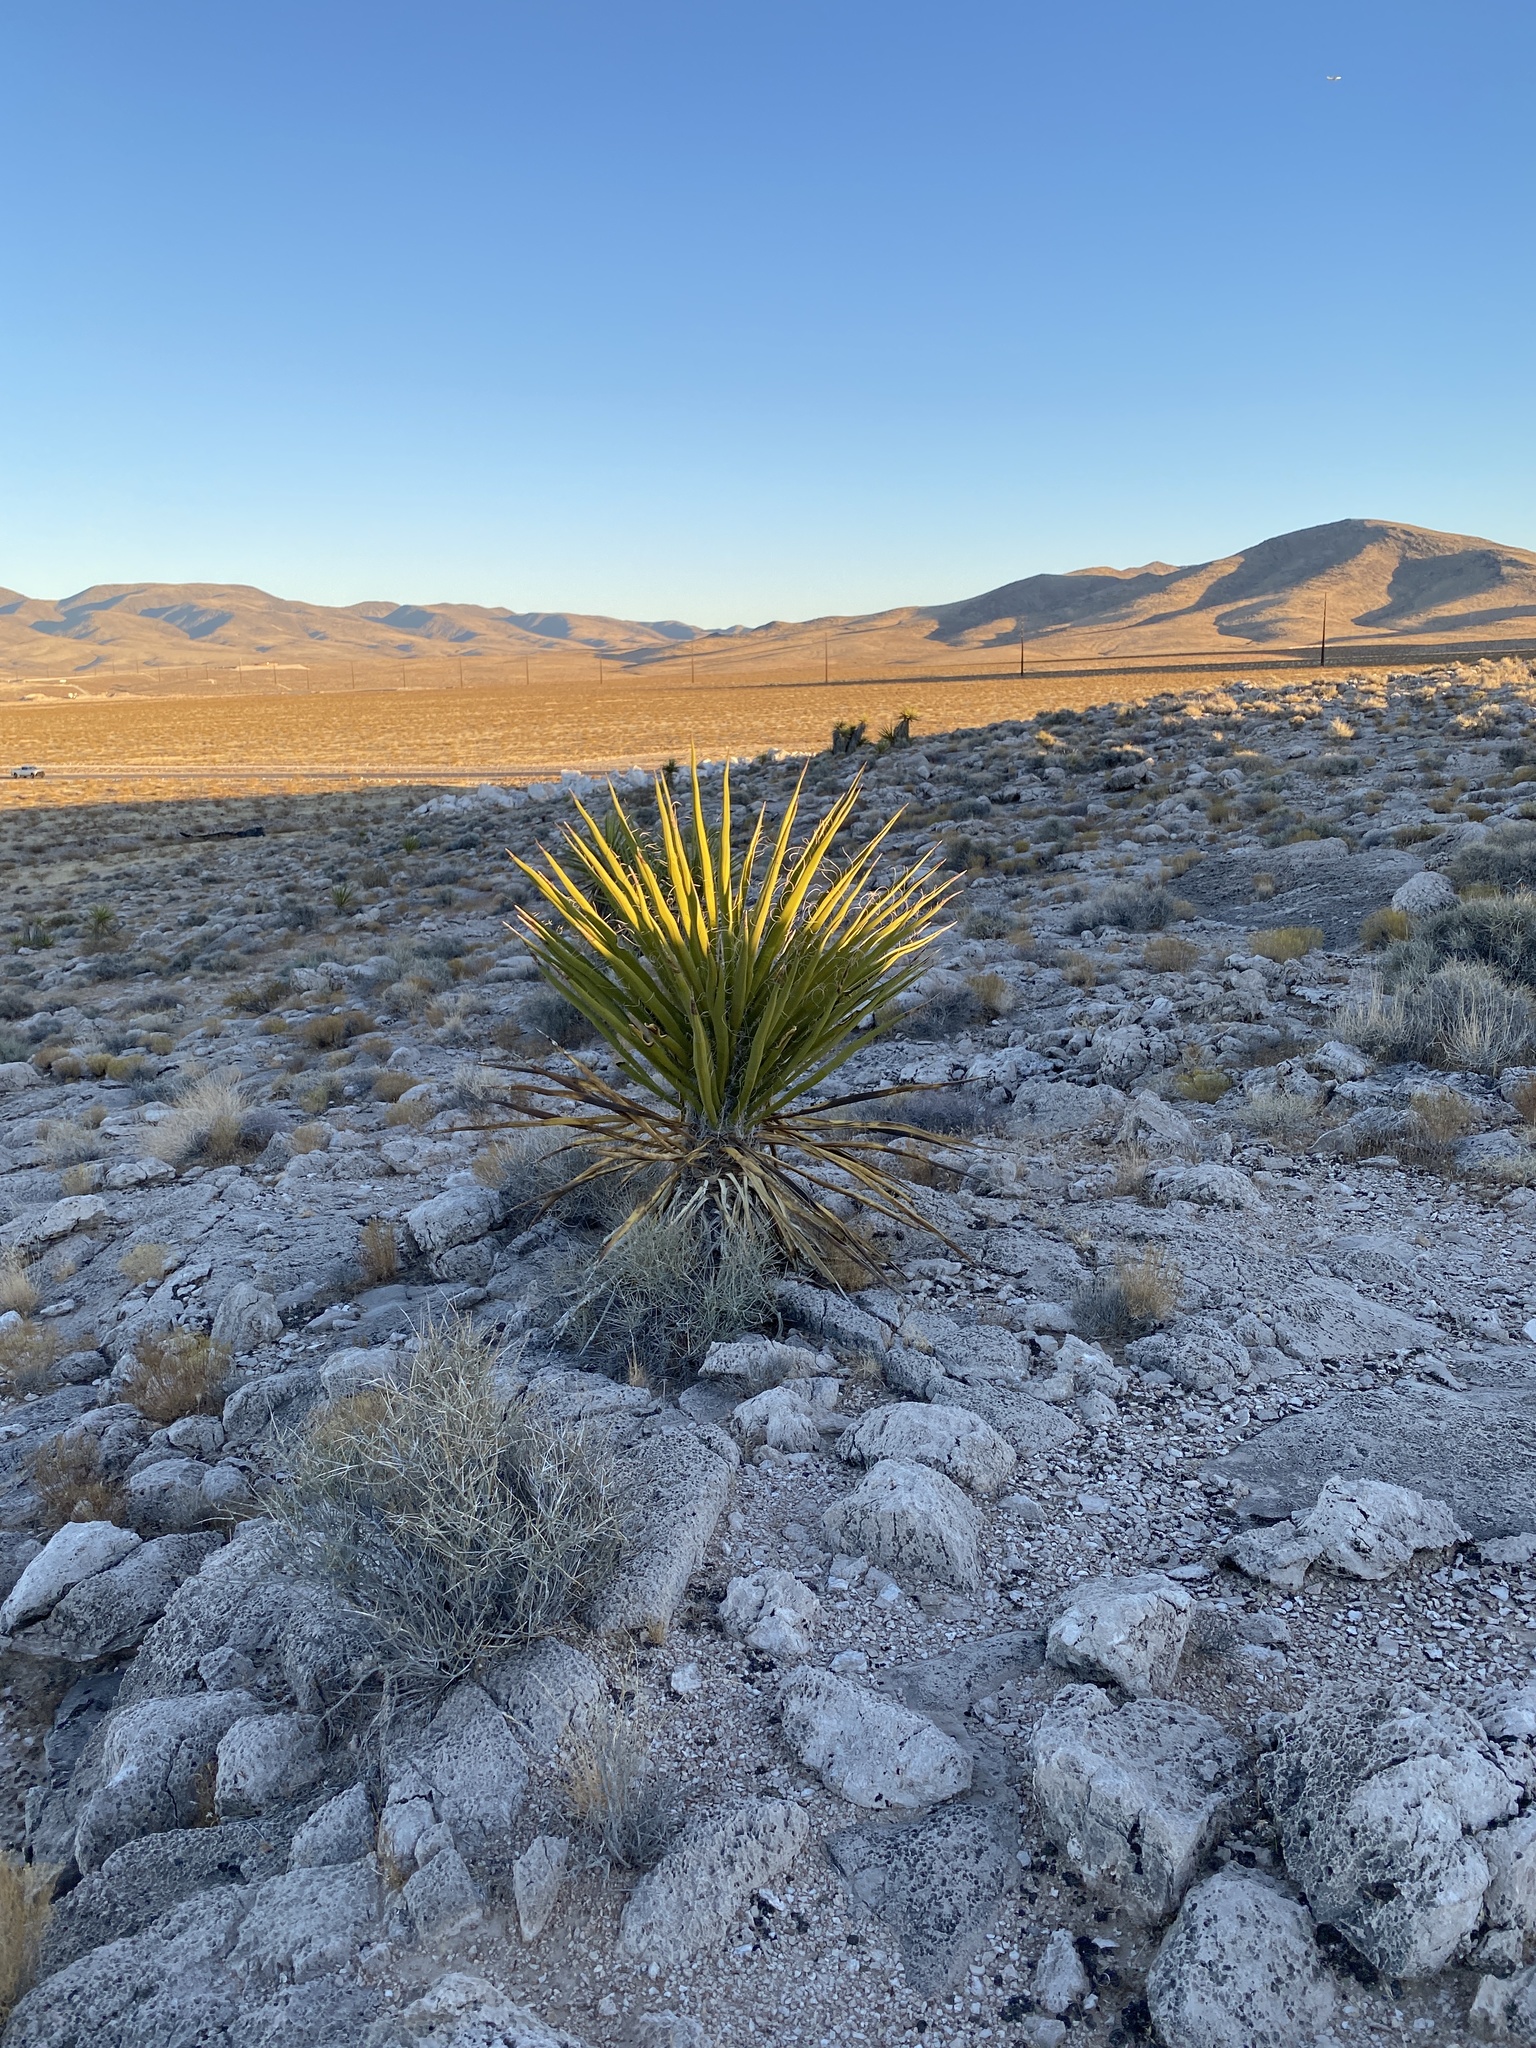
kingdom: Plantae
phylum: Tracheophyta
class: Liliopsida
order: Asparagales
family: Asparagaceae
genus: Yucca
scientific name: Yucca schidigera
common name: Mojave yucca
